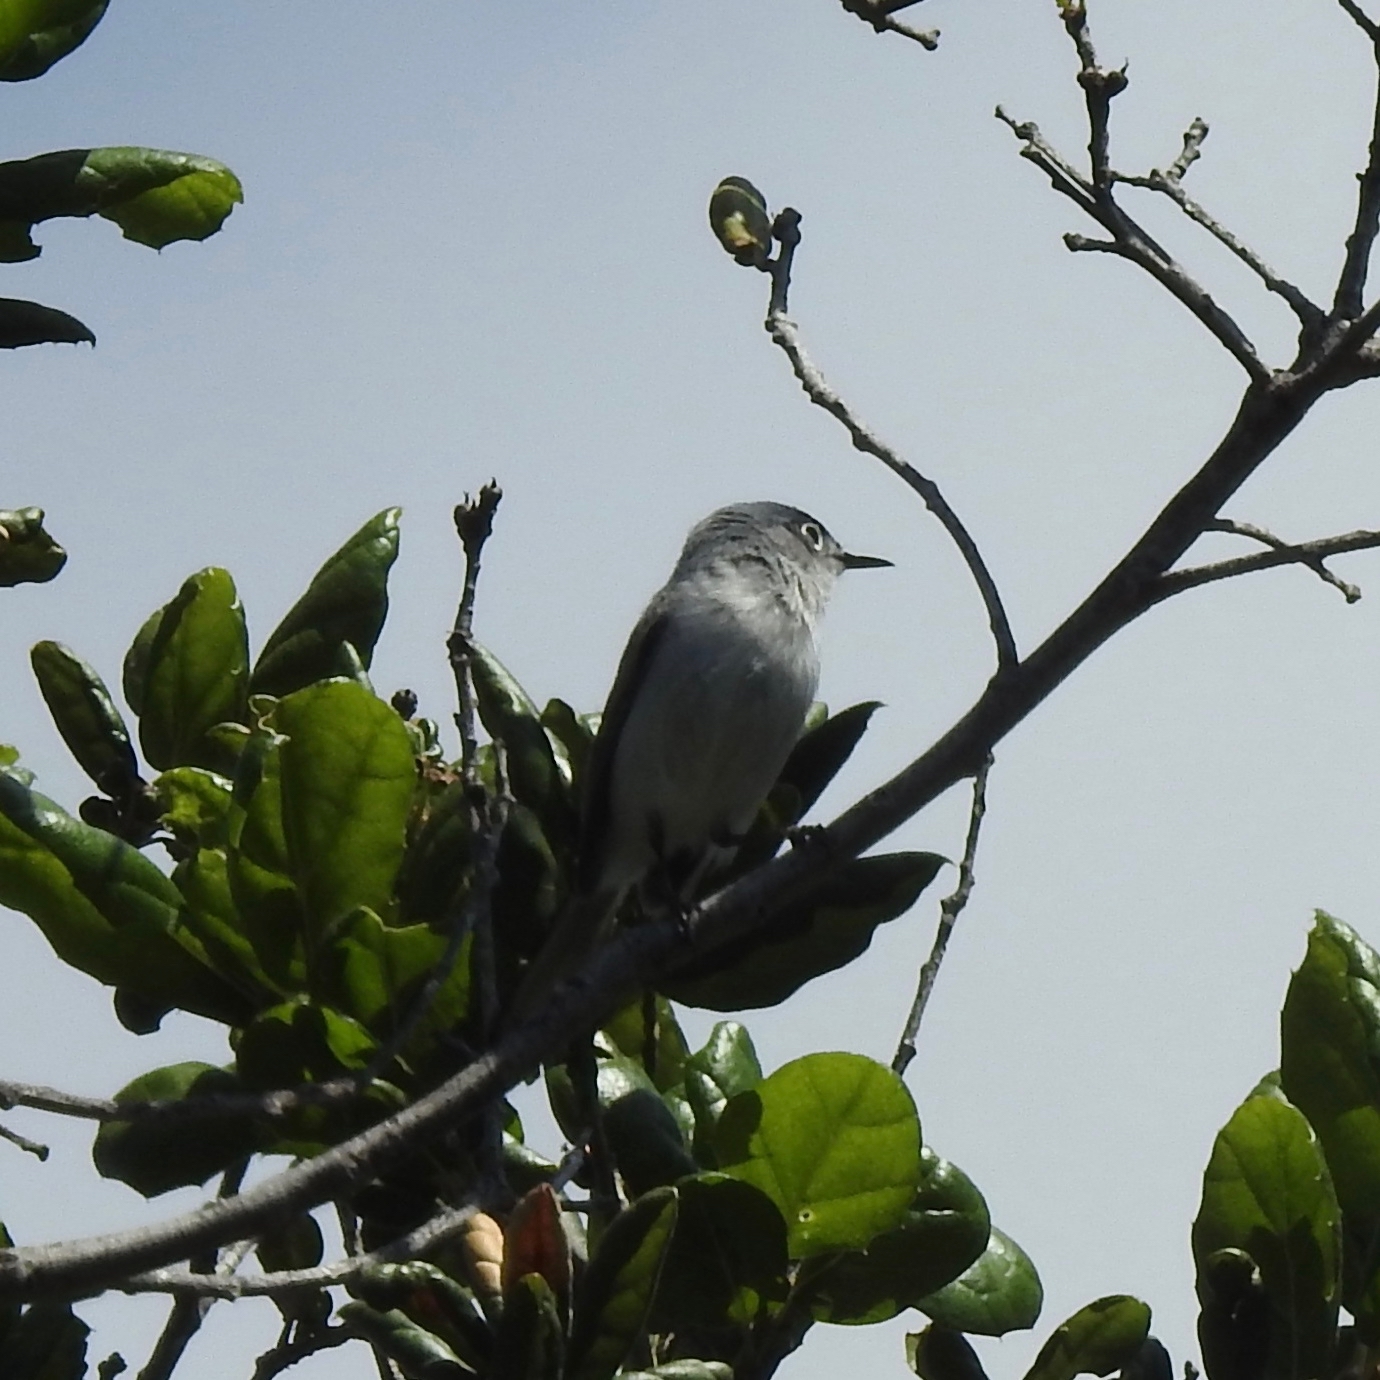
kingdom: Animalia
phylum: Chordata
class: Aves
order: Passeriformes
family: Polioptilidae
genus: Polioptila
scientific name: Polioptila caerulea
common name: Blue-gray gnatcatcher
